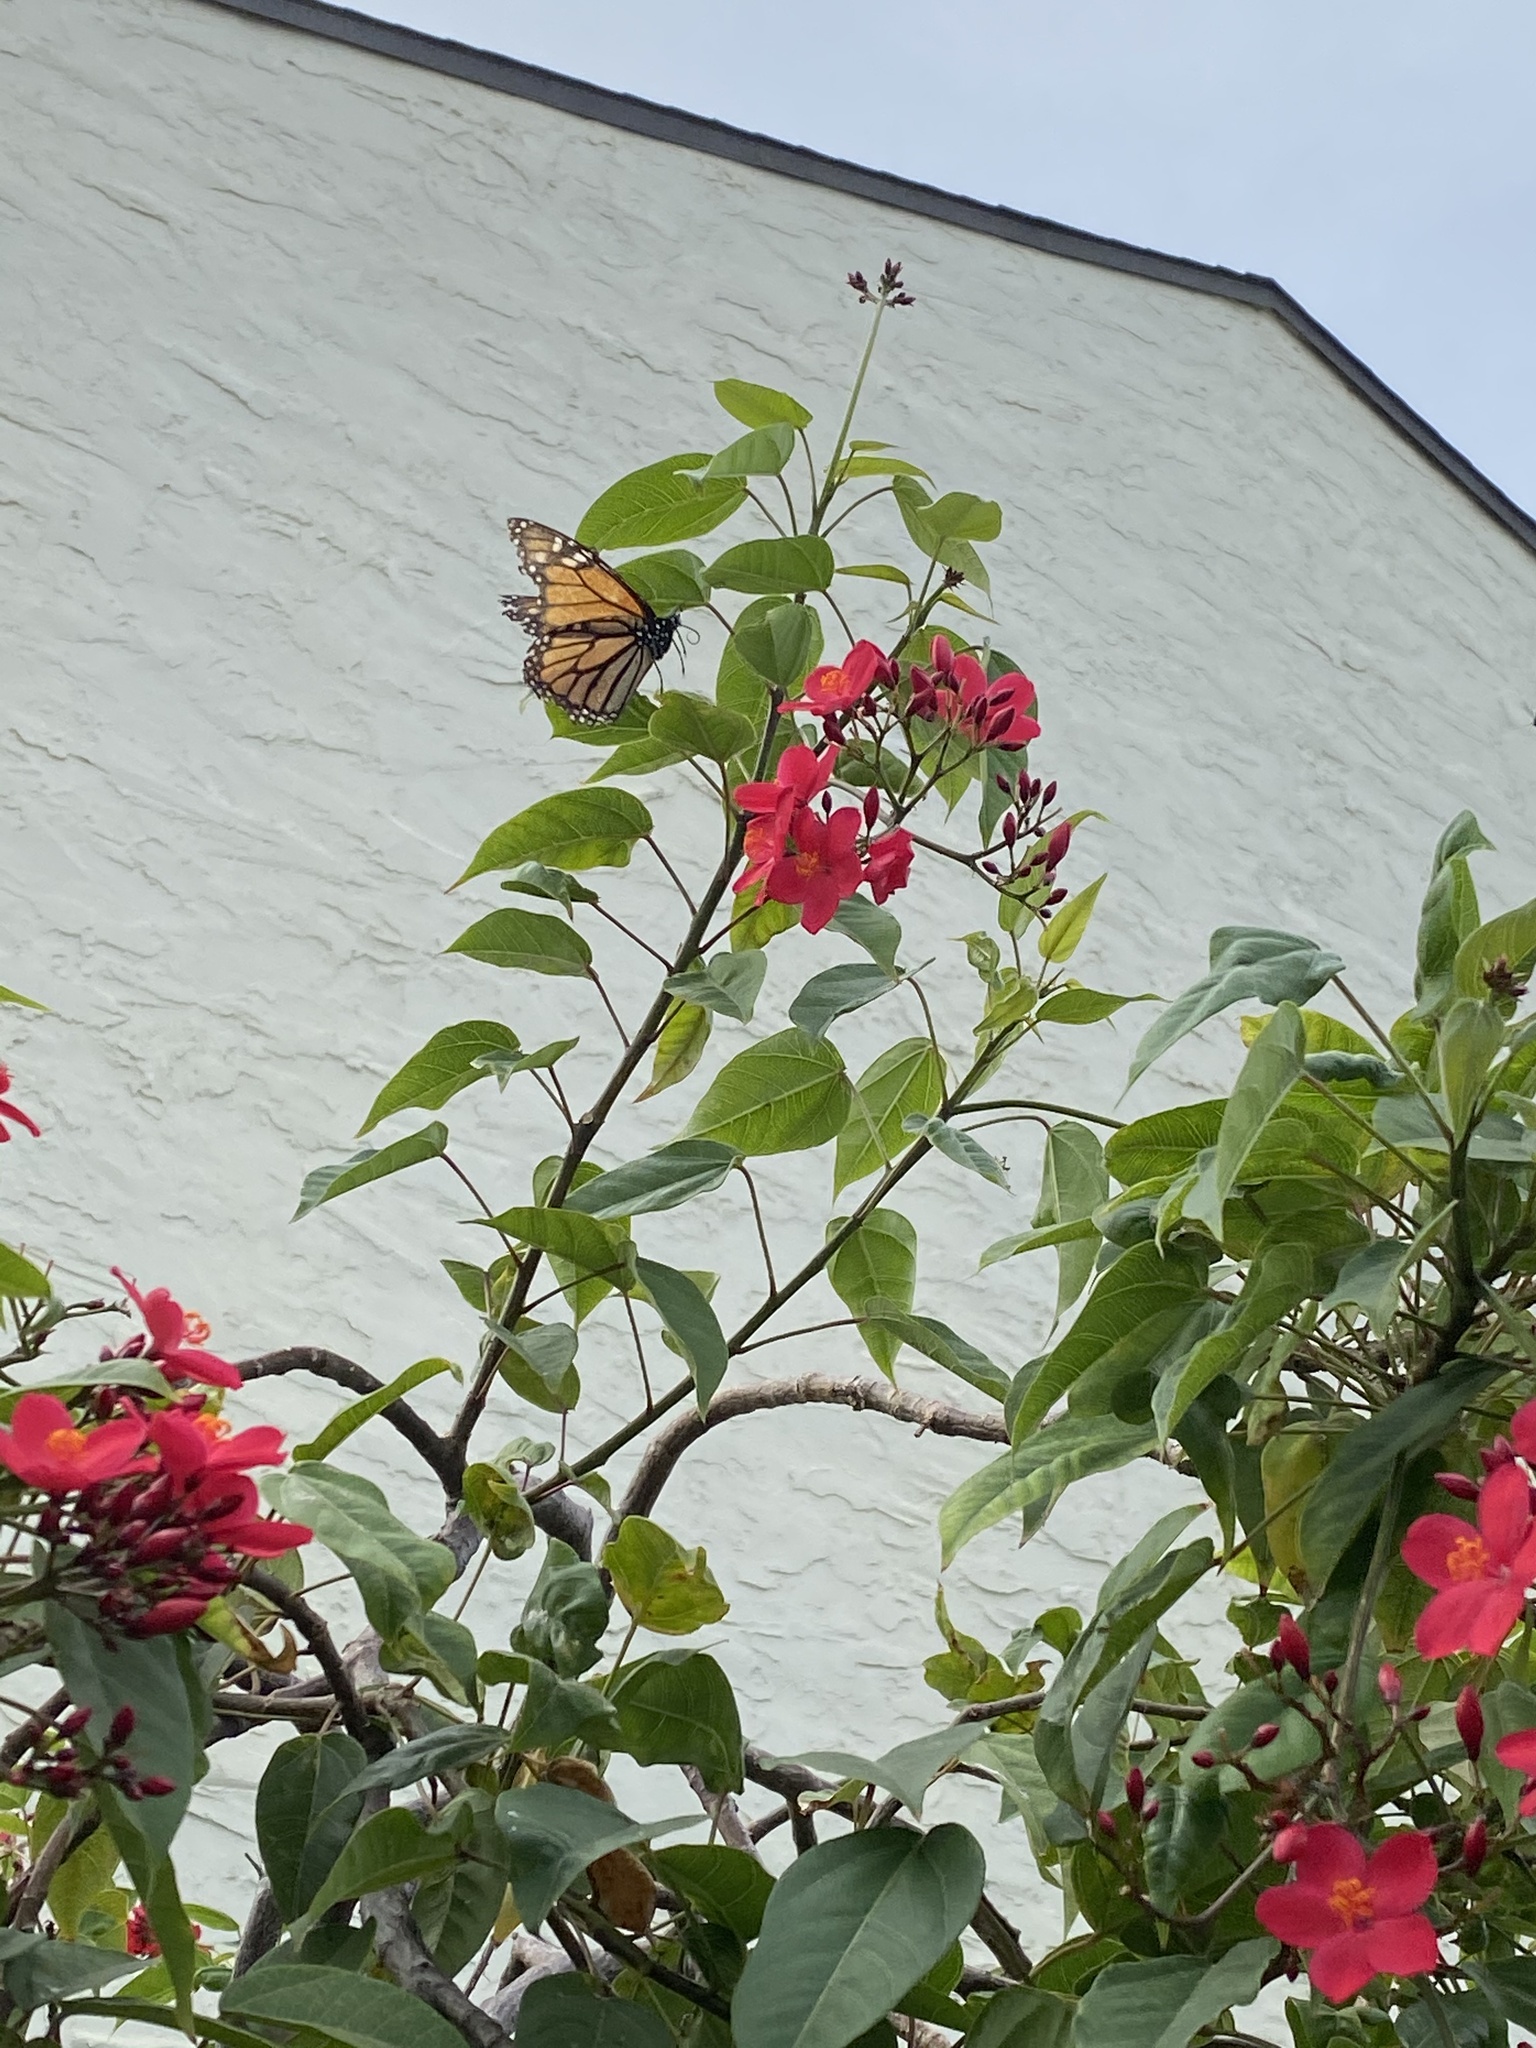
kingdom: Animalia
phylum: Arthropoda
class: Insecta
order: Lepidoptera
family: Nymphalidae
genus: Danaus
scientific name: Danaus plexippus
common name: Monarch
